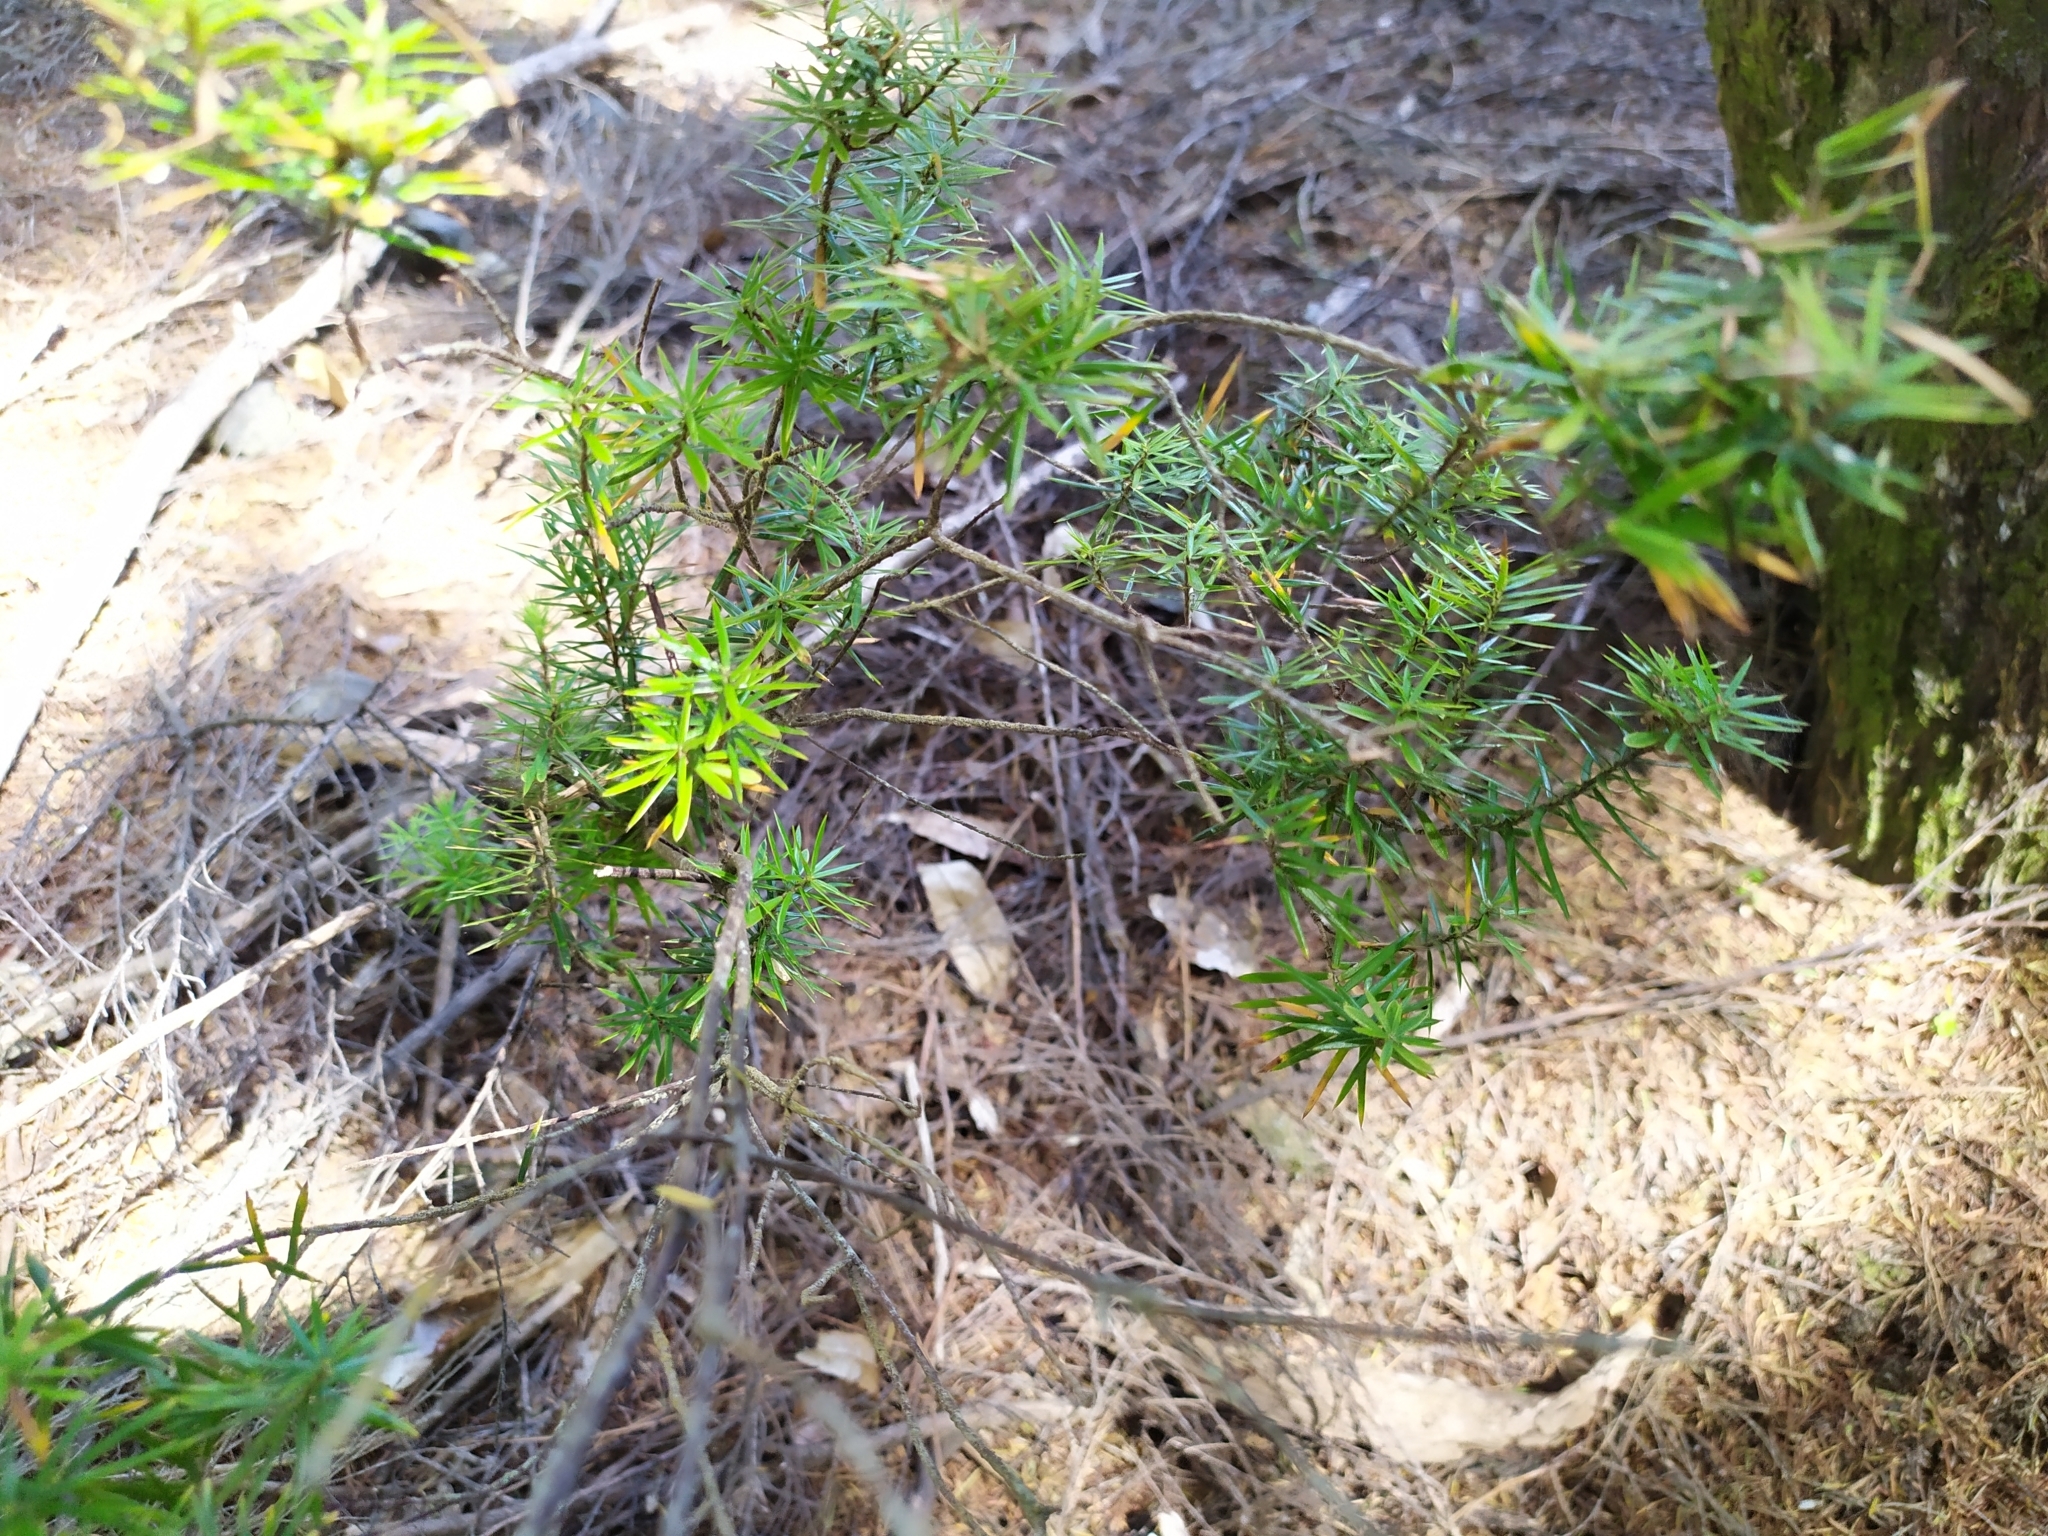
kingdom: Plantae
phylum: Tracheophyta
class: Magnoliopsida
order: Ericales
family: Ericaceae
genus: Leptecophylla
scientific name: Leptecophylla juniperina
